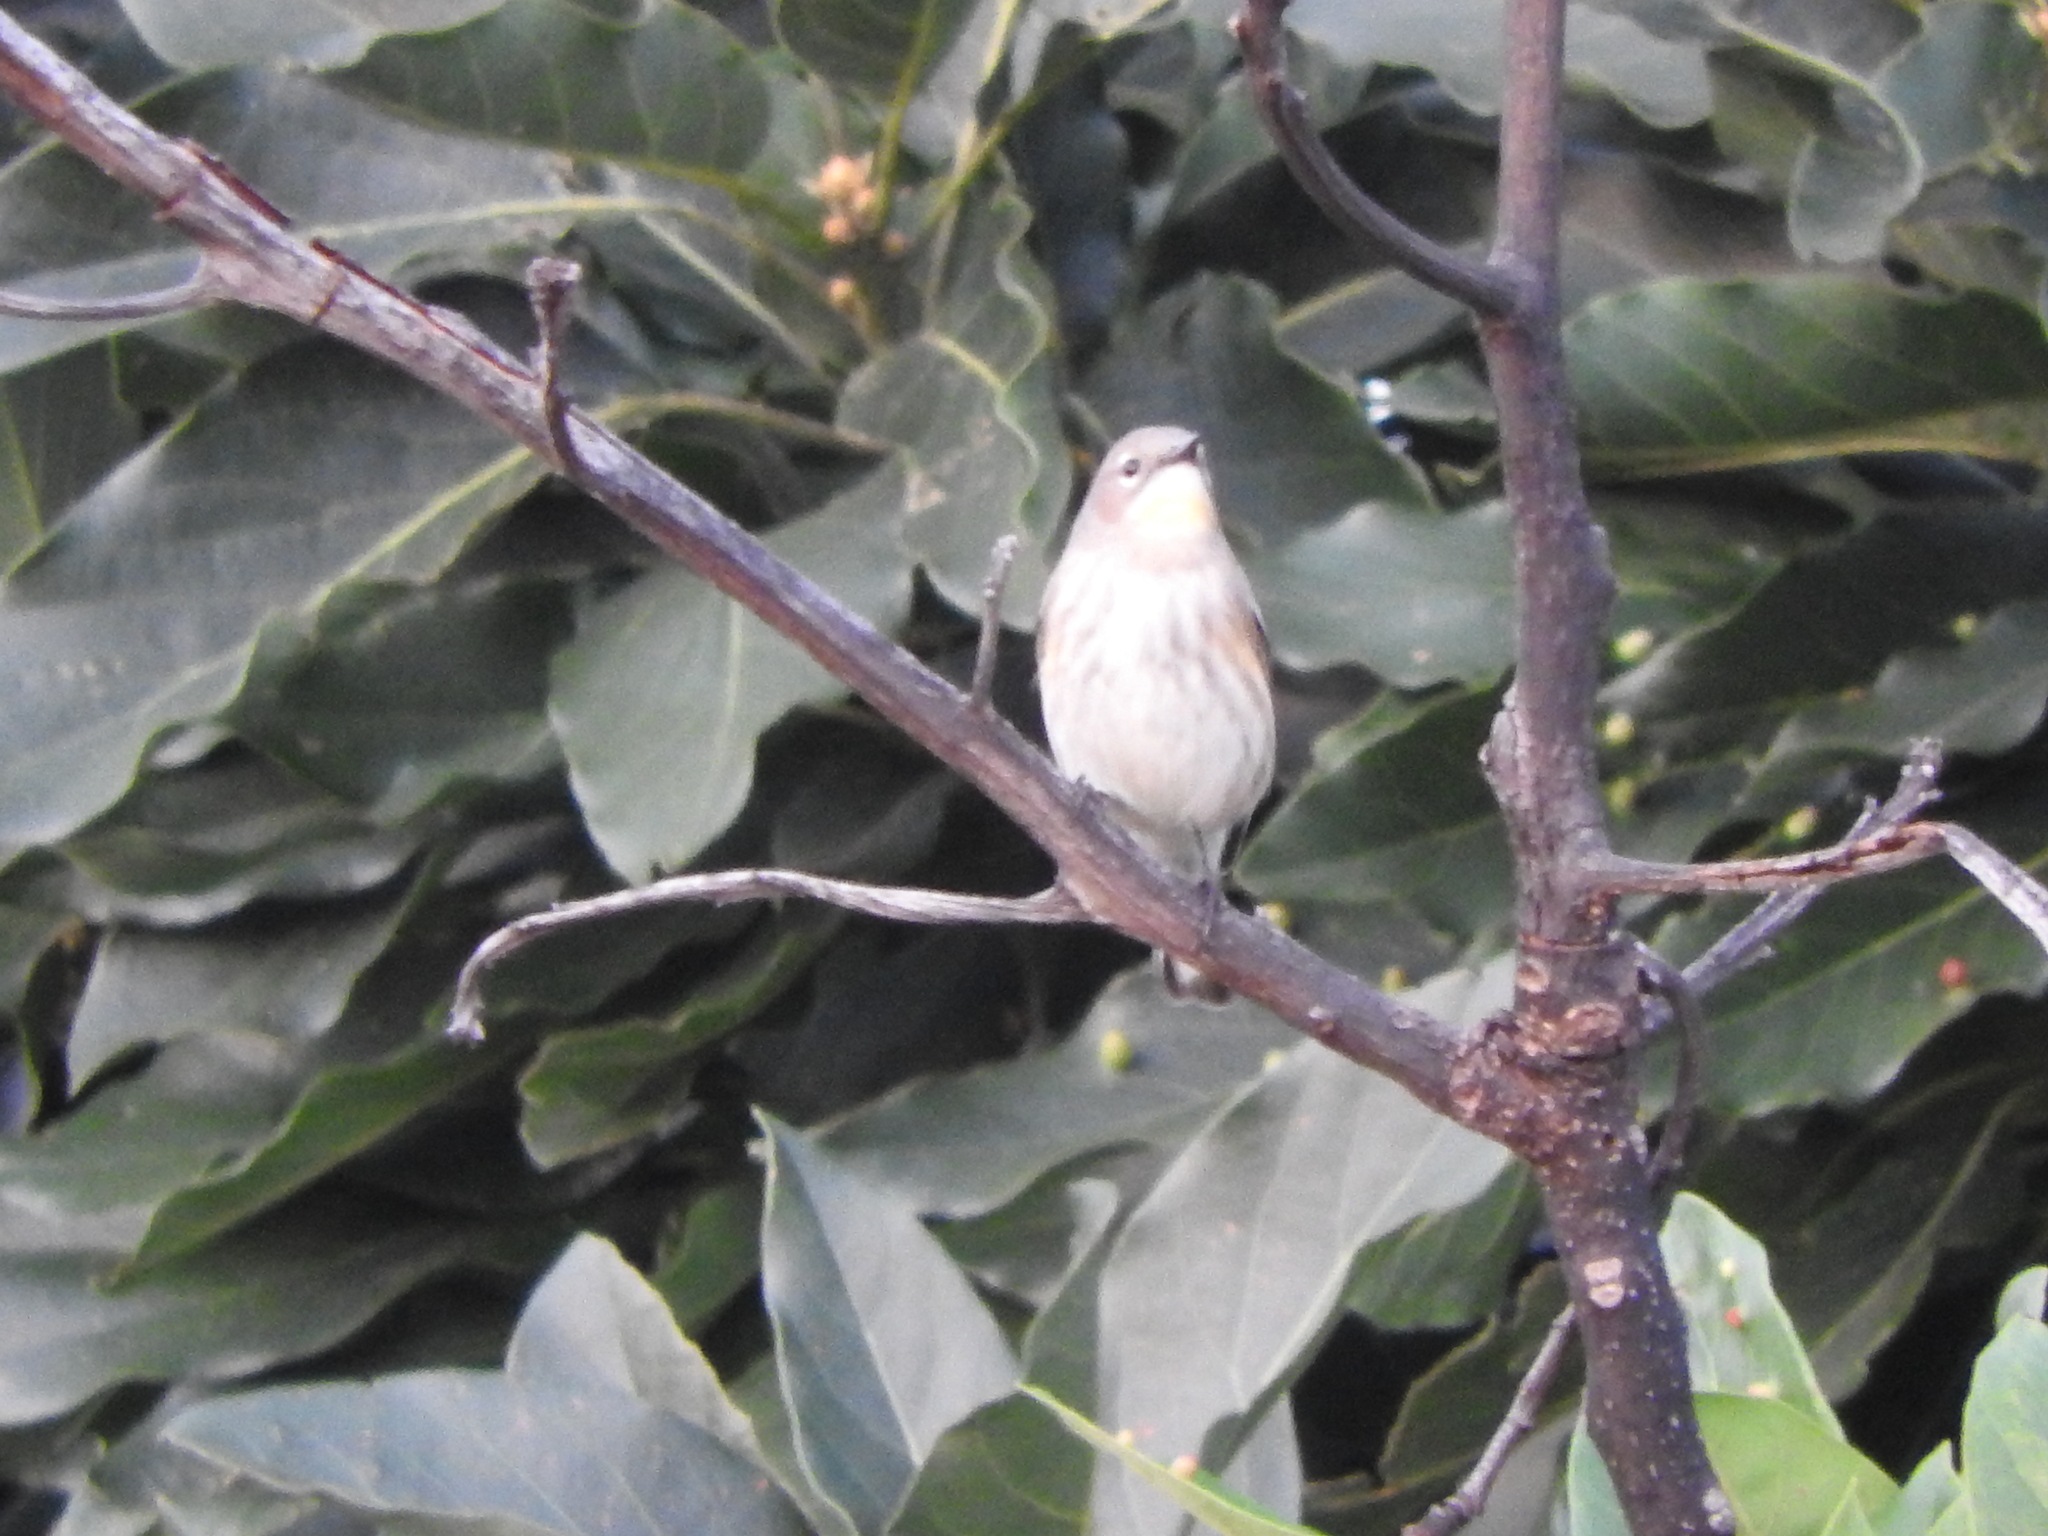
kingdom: Animalia
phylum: Chordata
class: Aves
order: Passeriformes
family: Parulidae
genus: Setophaga
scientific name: Setophaga coronata
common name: Myrtle warbler
